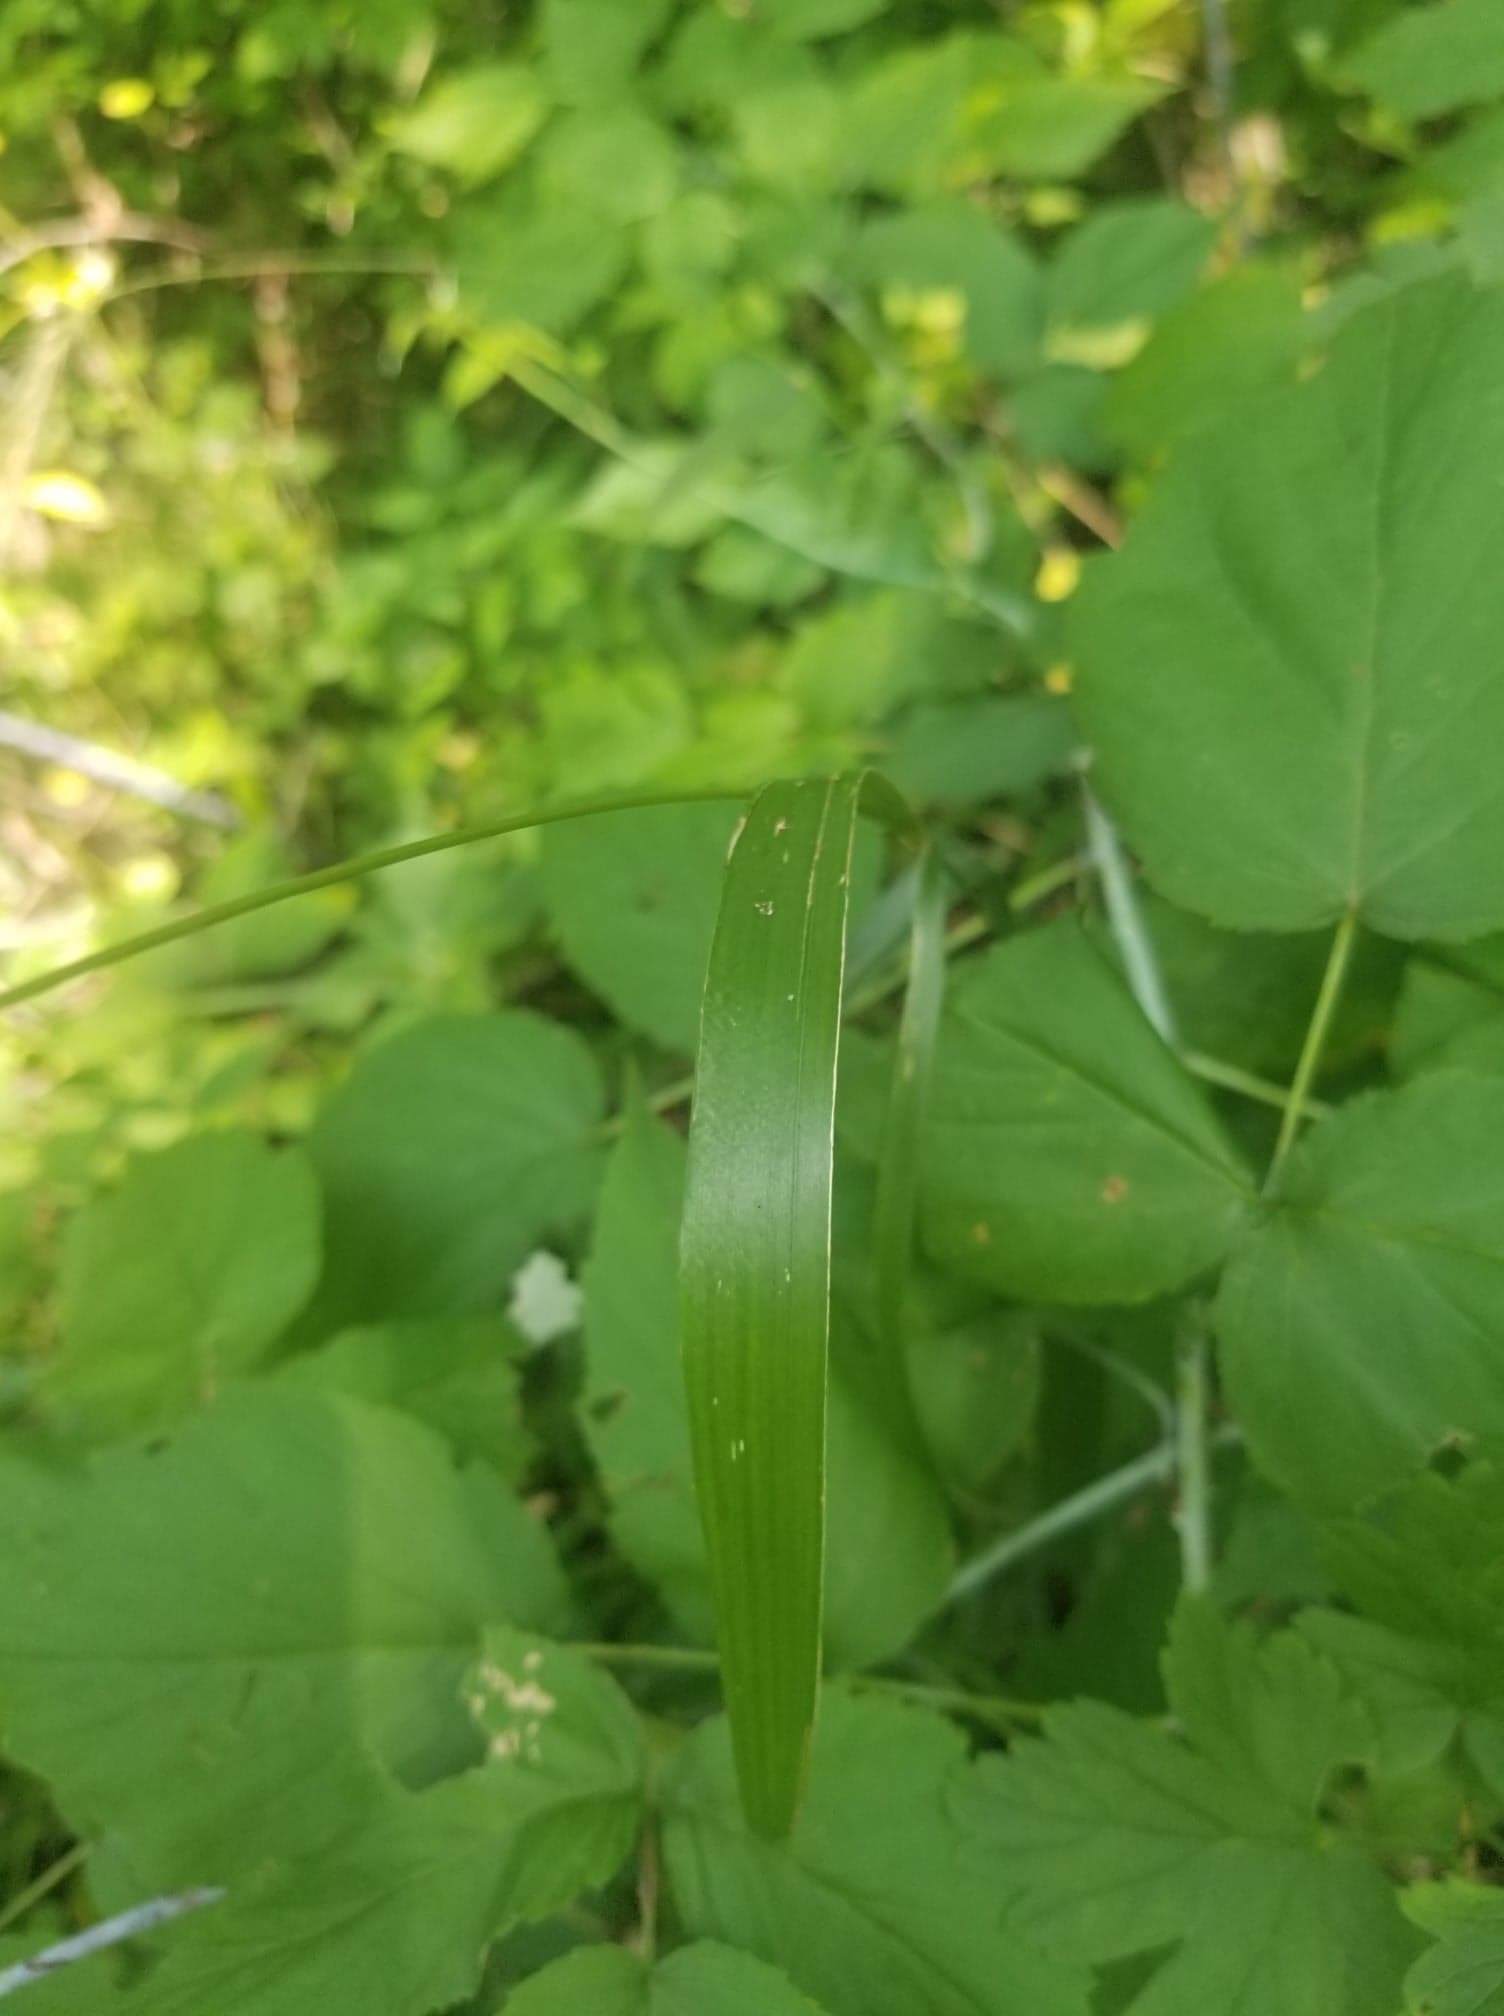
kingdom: Plantae
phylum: Tracheophyta
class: Liliopsida
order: Poales
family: Poaceae
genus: Cinna
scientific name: Cinna arundinacea
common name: Stout woodreed
